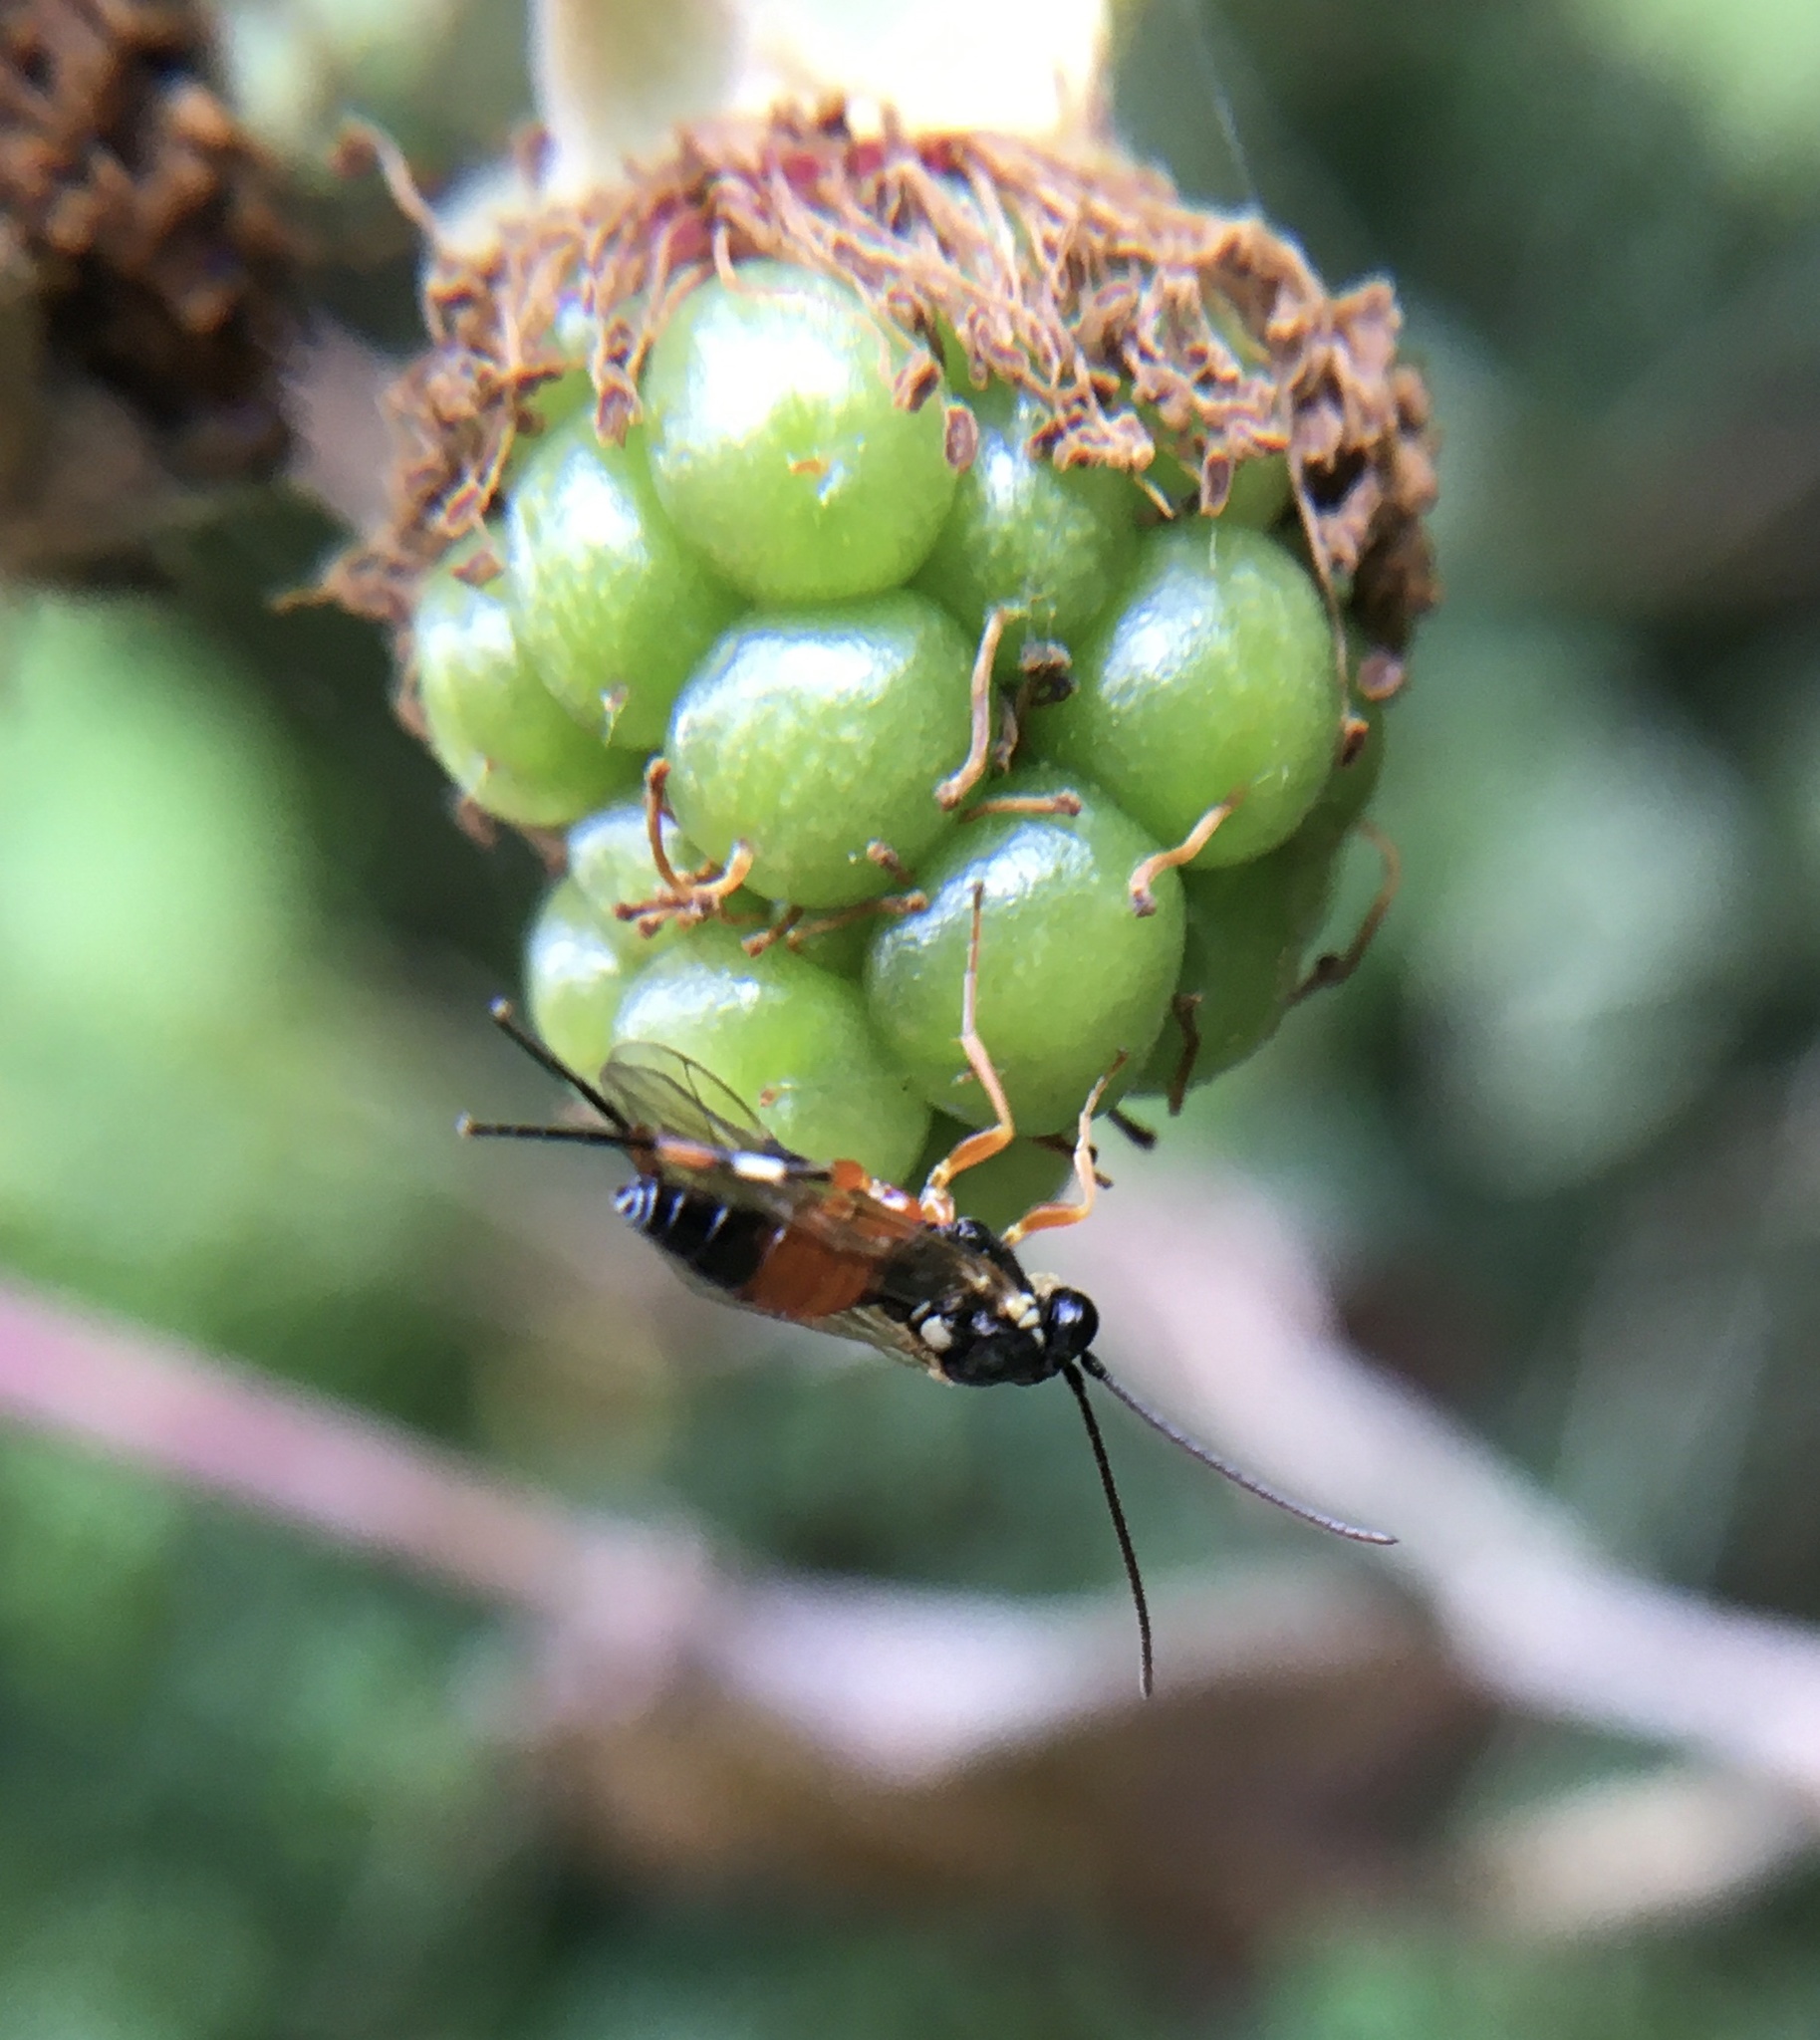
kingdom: Animalia
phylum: Arthropoda
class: Insecta
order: Hymenoptera
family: Ichneumonidae
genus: Diplazon
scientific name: Diplazon laetatorius
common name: Parasitoid wasp
